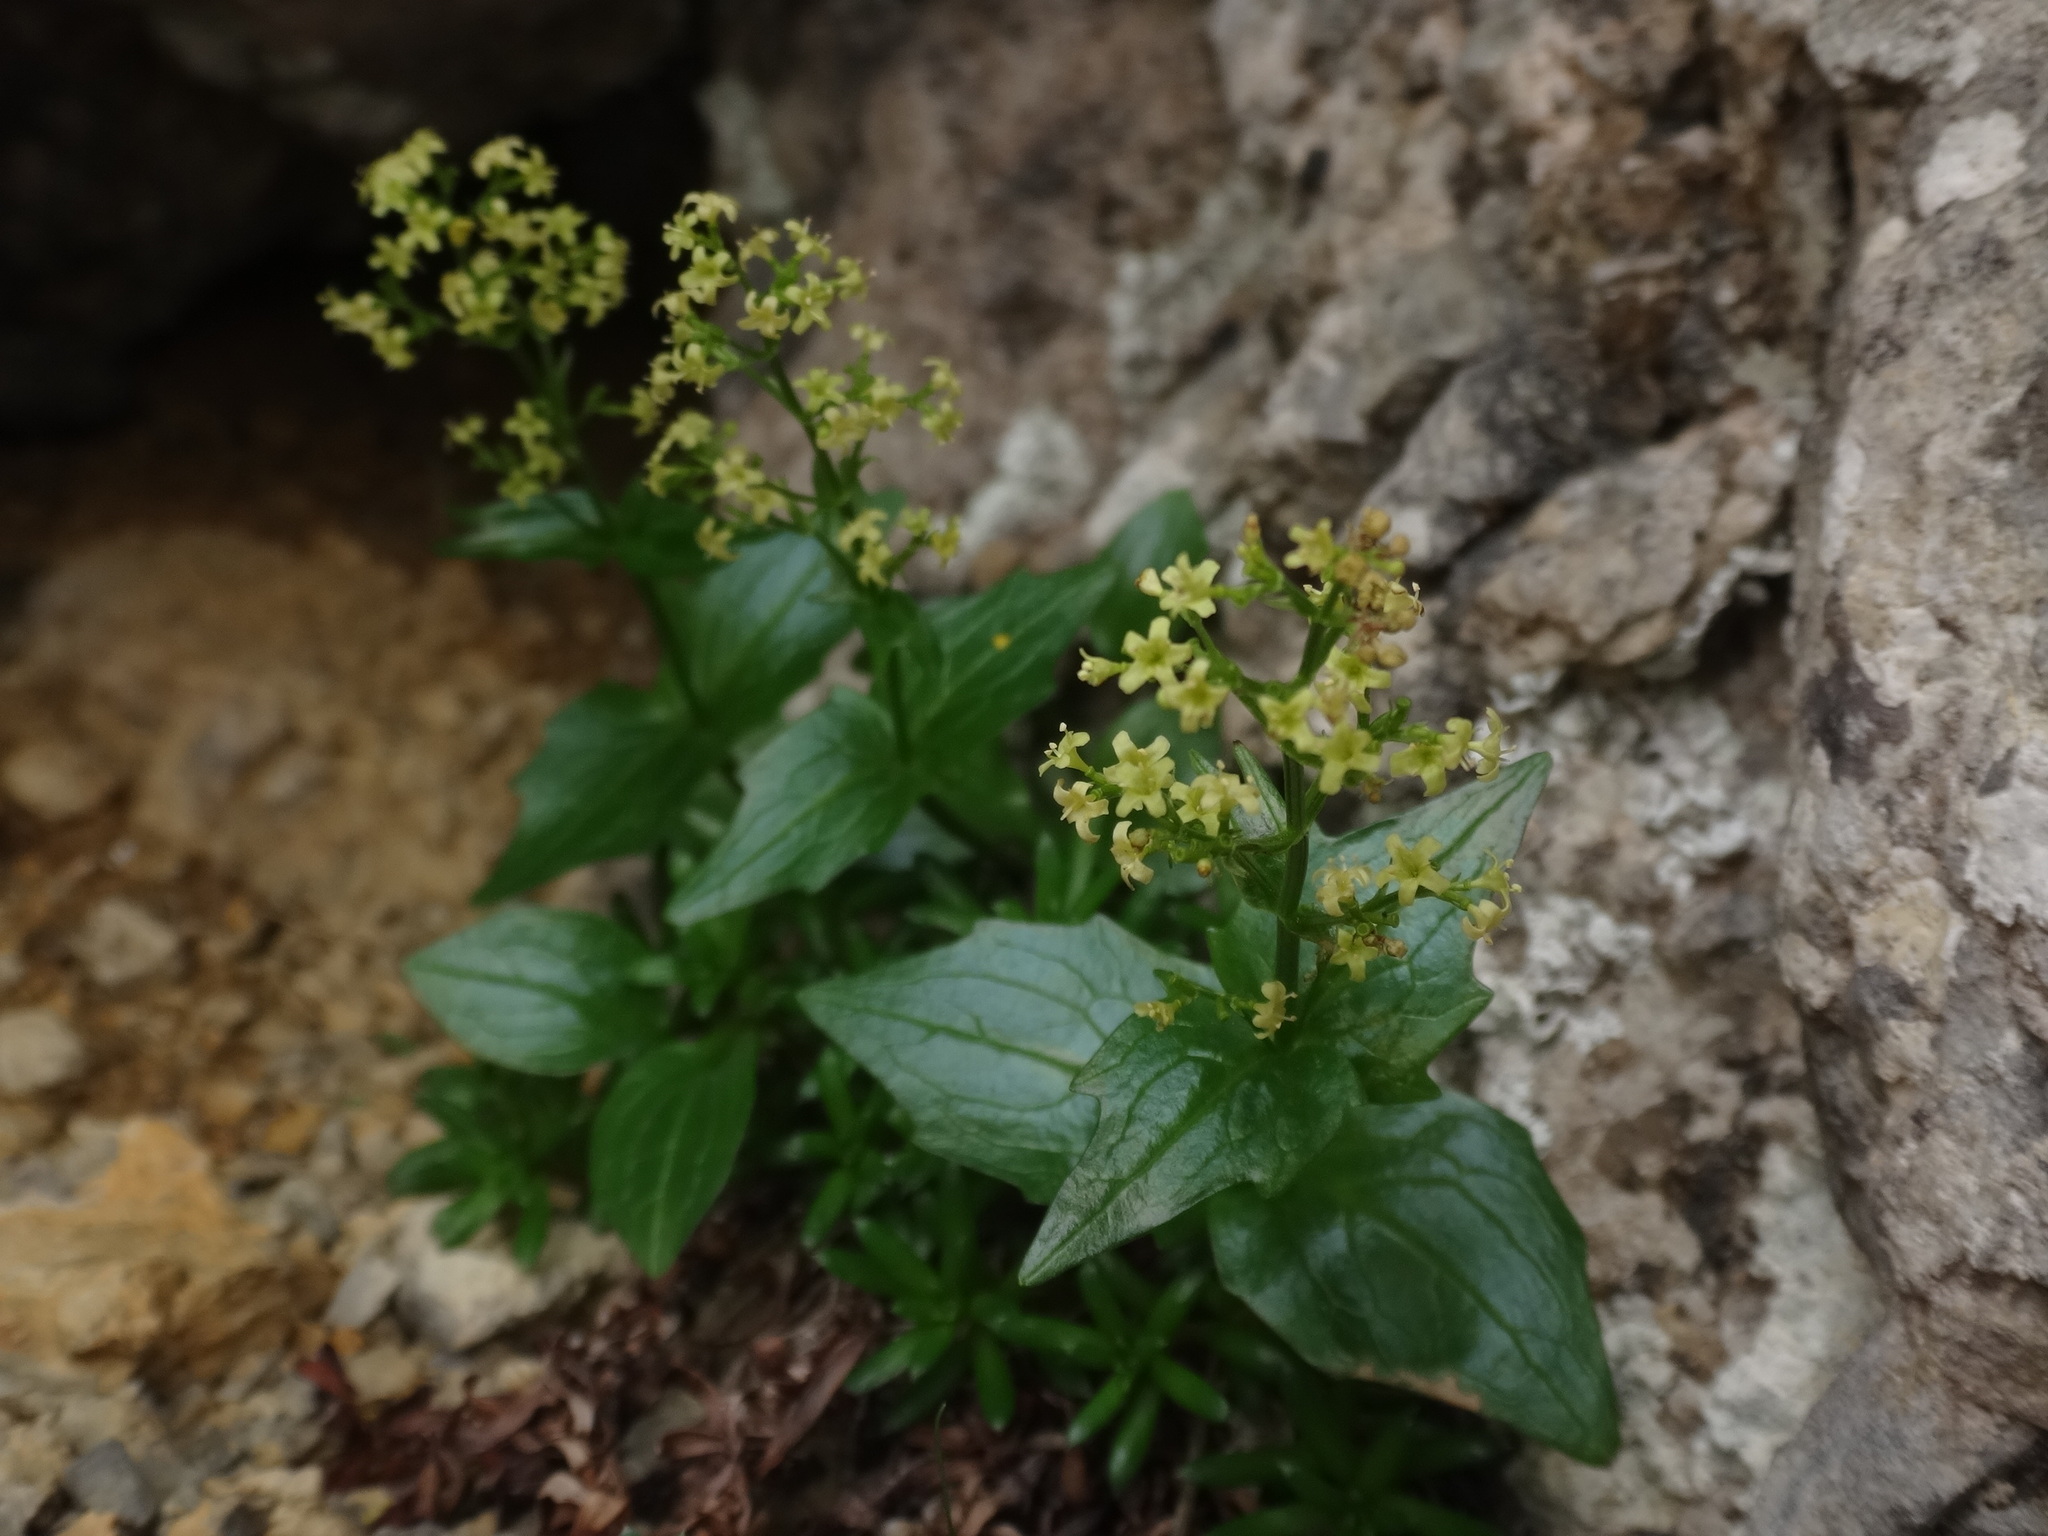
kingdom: Plantae
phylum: Tracheophyta
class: Magnoliopsida
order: Dipsacales
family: Caprifoliaceae
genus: Valeriana
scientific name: Valeriana elongata
